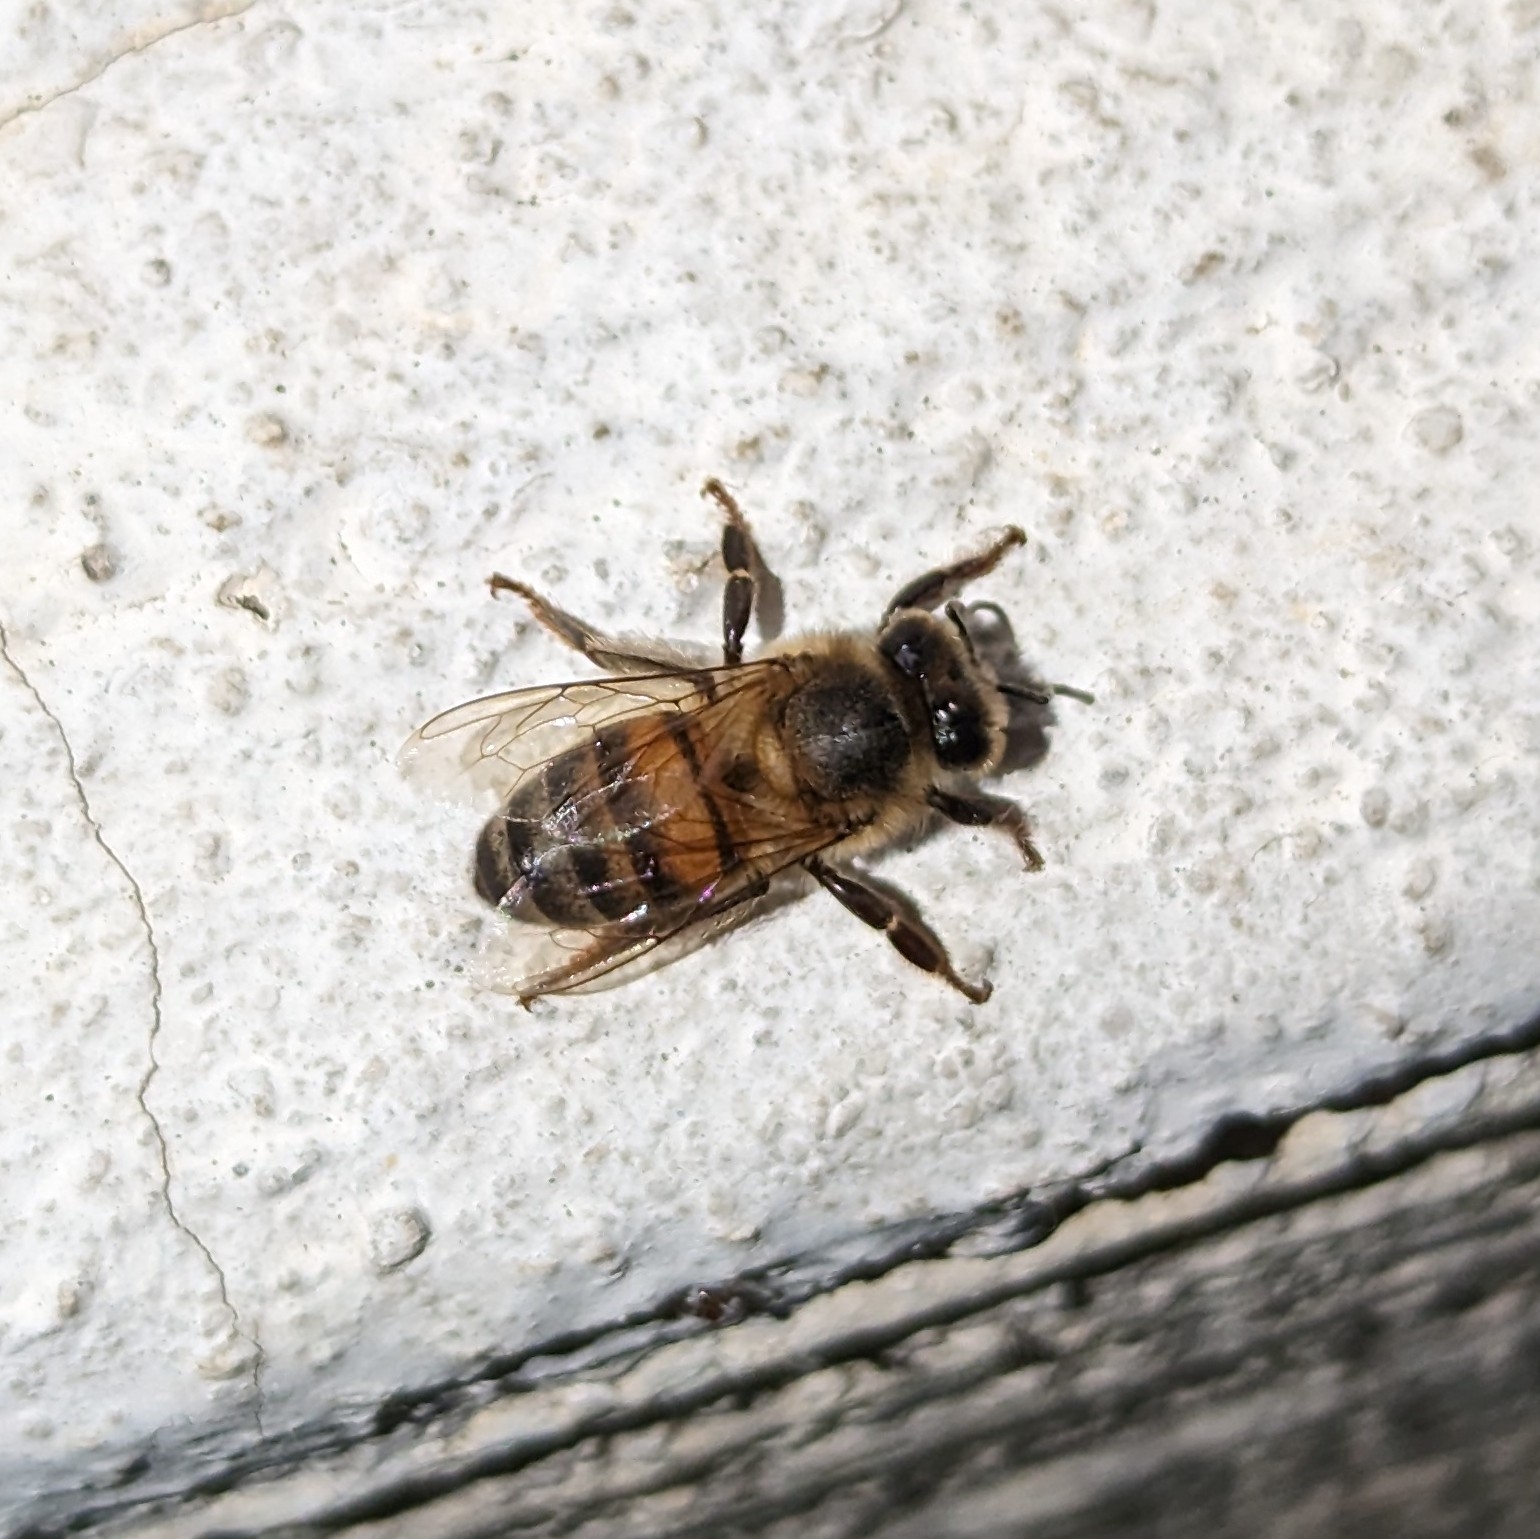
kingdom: Animalia
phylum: Arthropoda
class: Insecta
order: Hymenoptera
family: Apidae
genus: Apis
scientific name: Apis mellifera
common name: Honey bee
